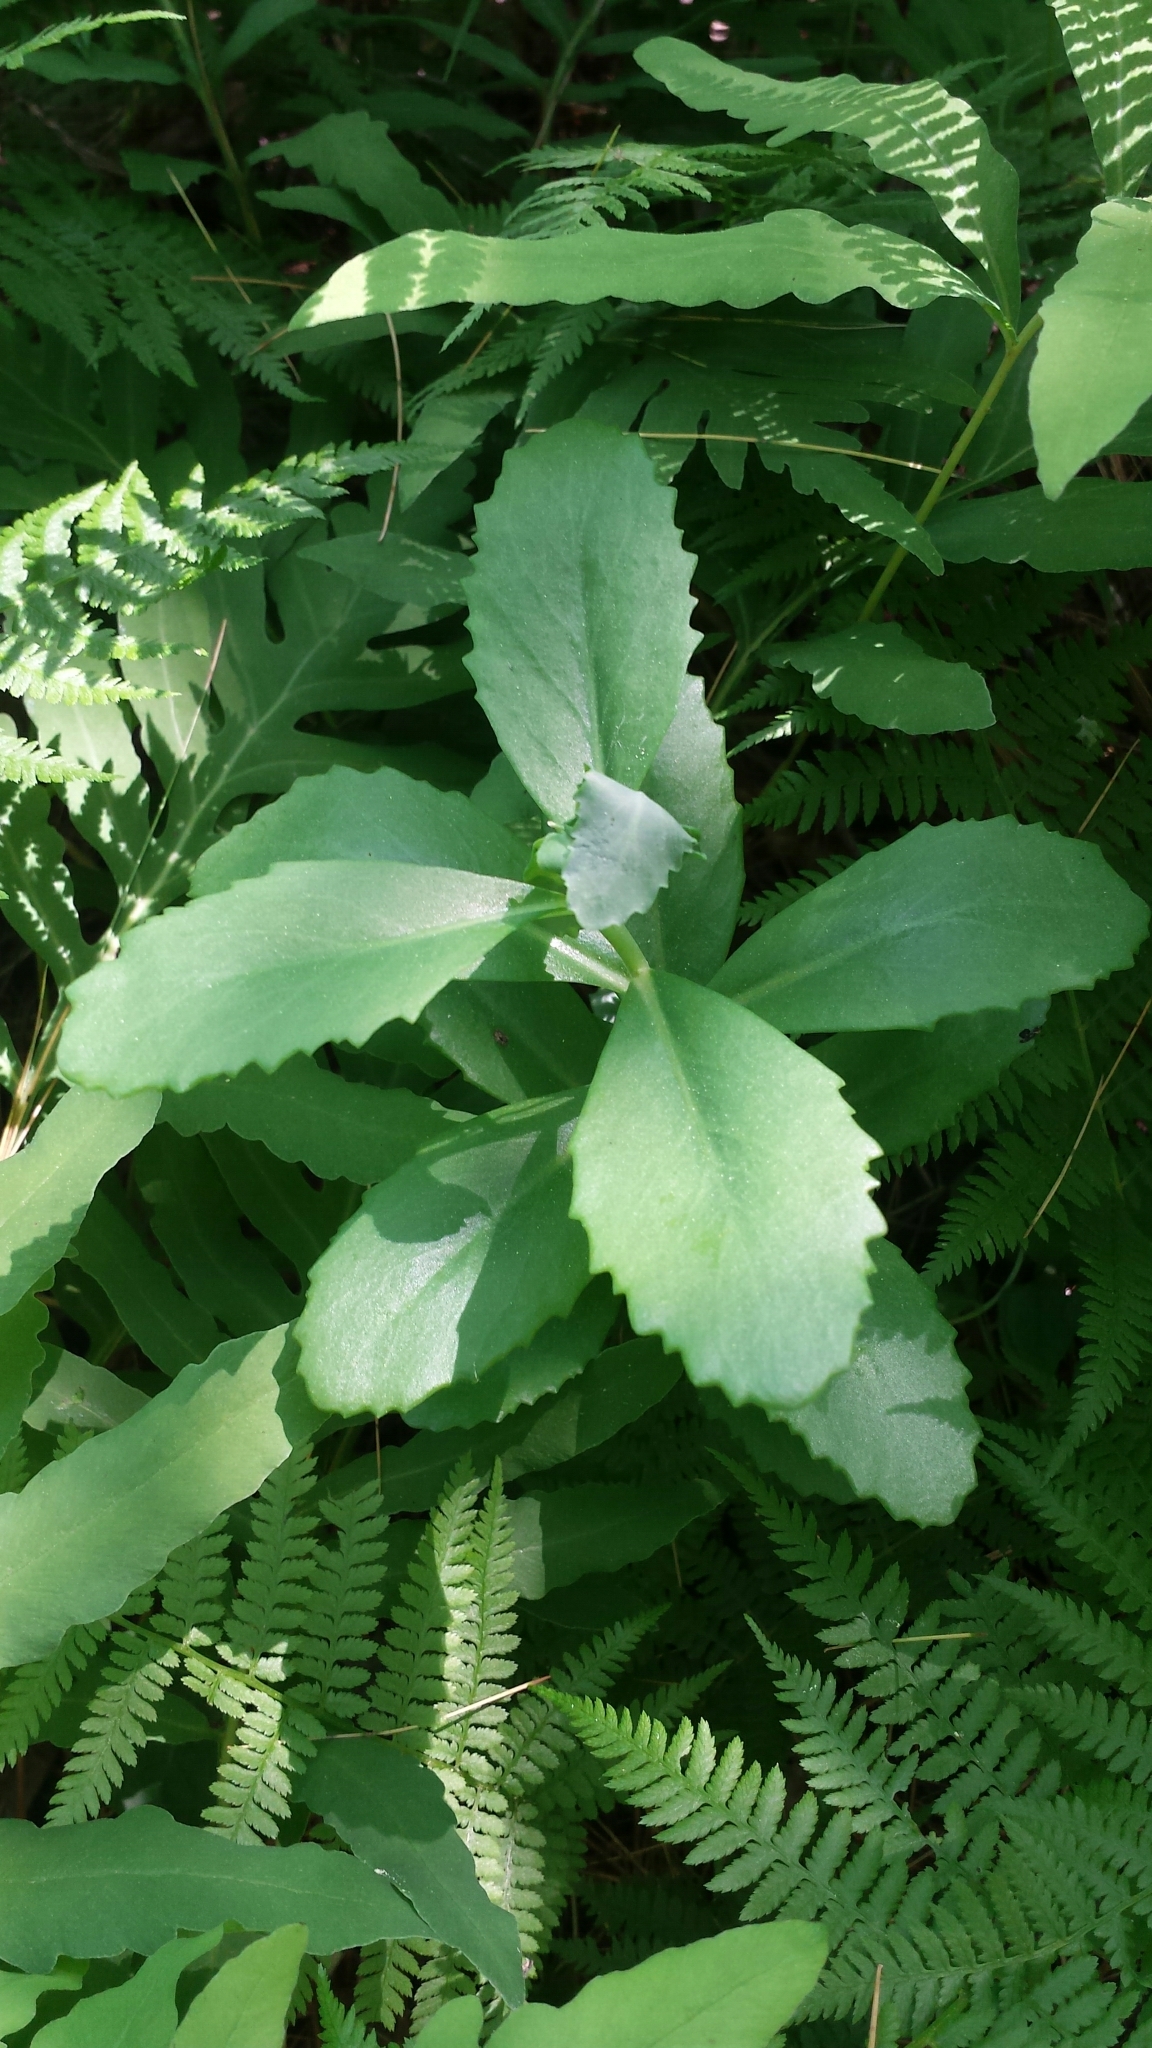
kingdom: Plantae
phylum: Tracheophyta
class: Magnoliopsida
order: Saxifragales
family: Crassulaceae
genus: Hylotelephium
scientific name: Hylotelephium telephium
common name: Live-forever
